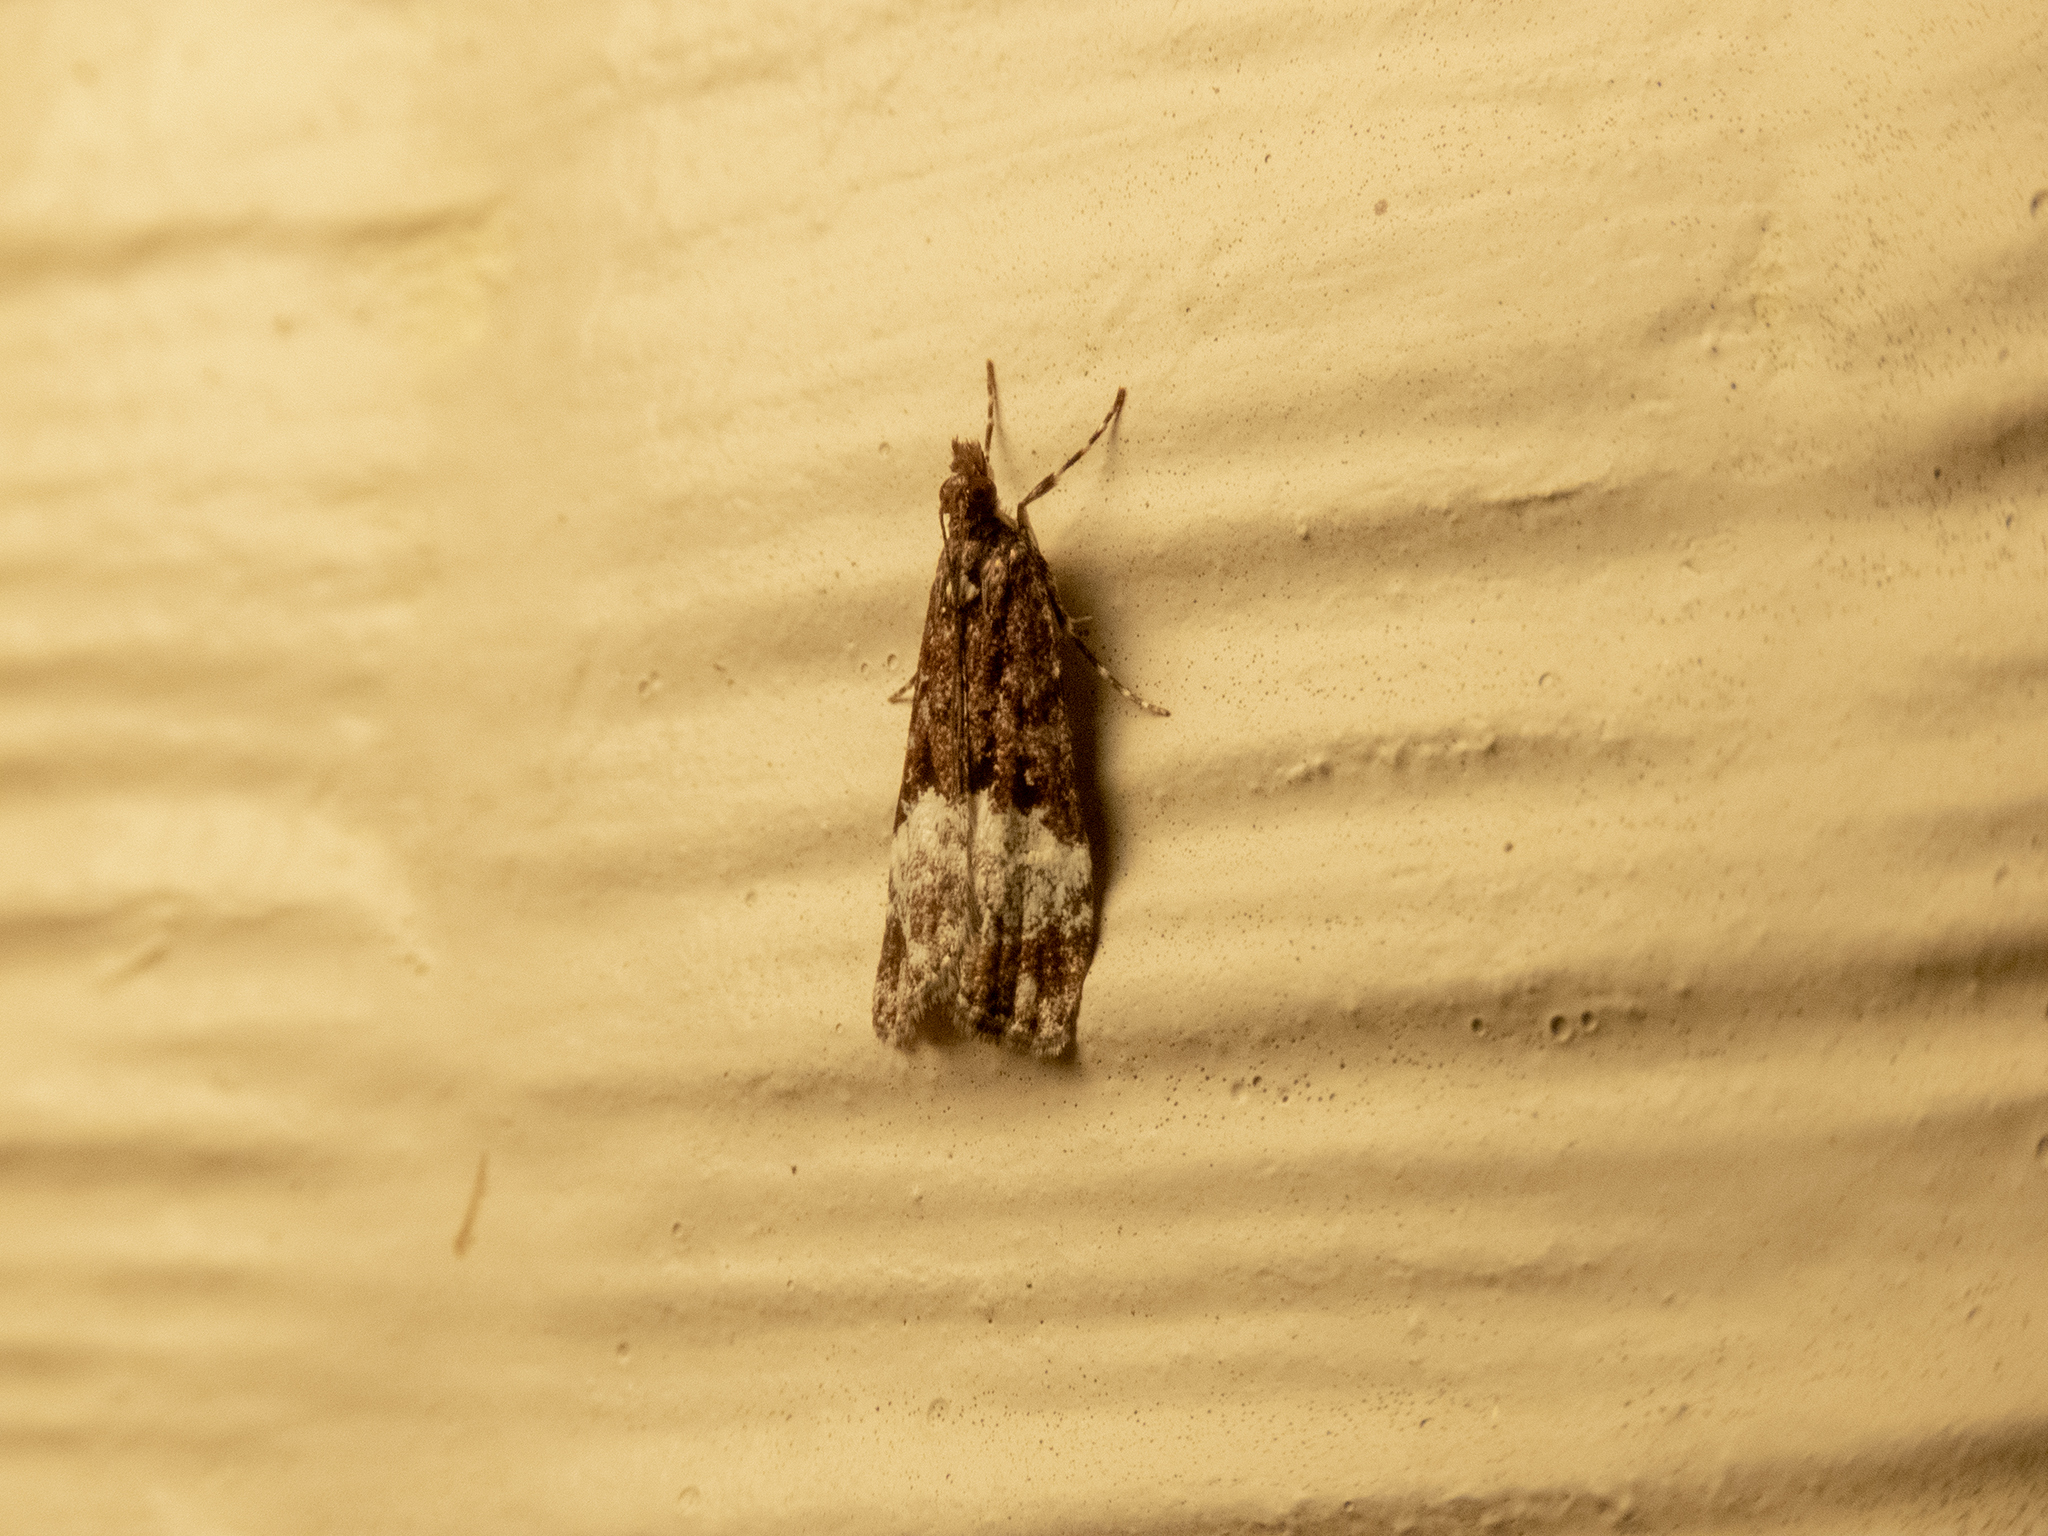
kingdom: Animalia
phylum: Arthropoda
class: Insecta
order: Lepidoptera
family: Crambidae
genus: Scoparia
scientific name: Scoparia minusculalis
